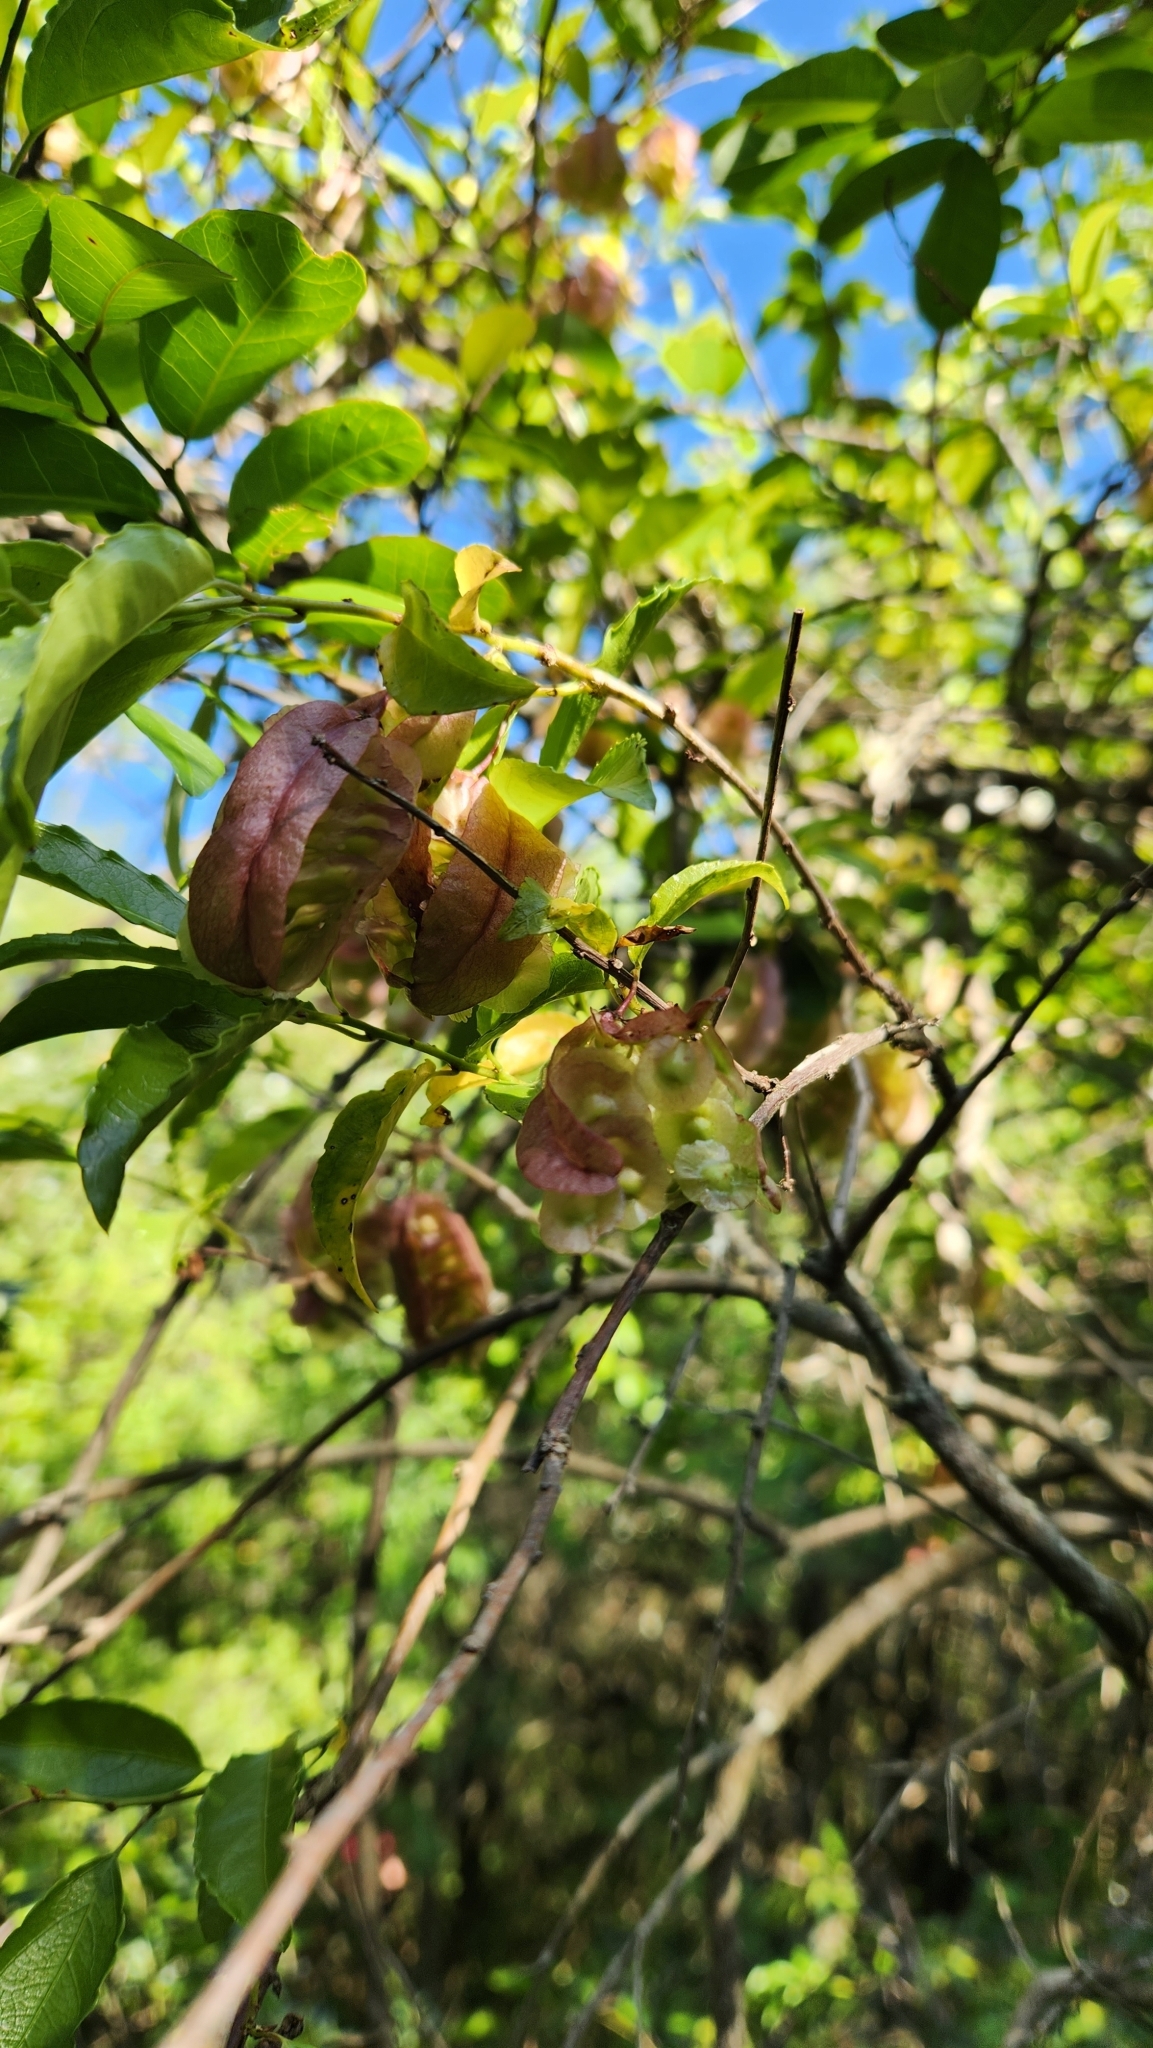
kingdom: Plantae
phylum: Tracheophyta
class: Magnoliopsida
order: Malpighiales
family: Violaceae
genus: Anchietea
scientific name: Anchietea pyrifolia
